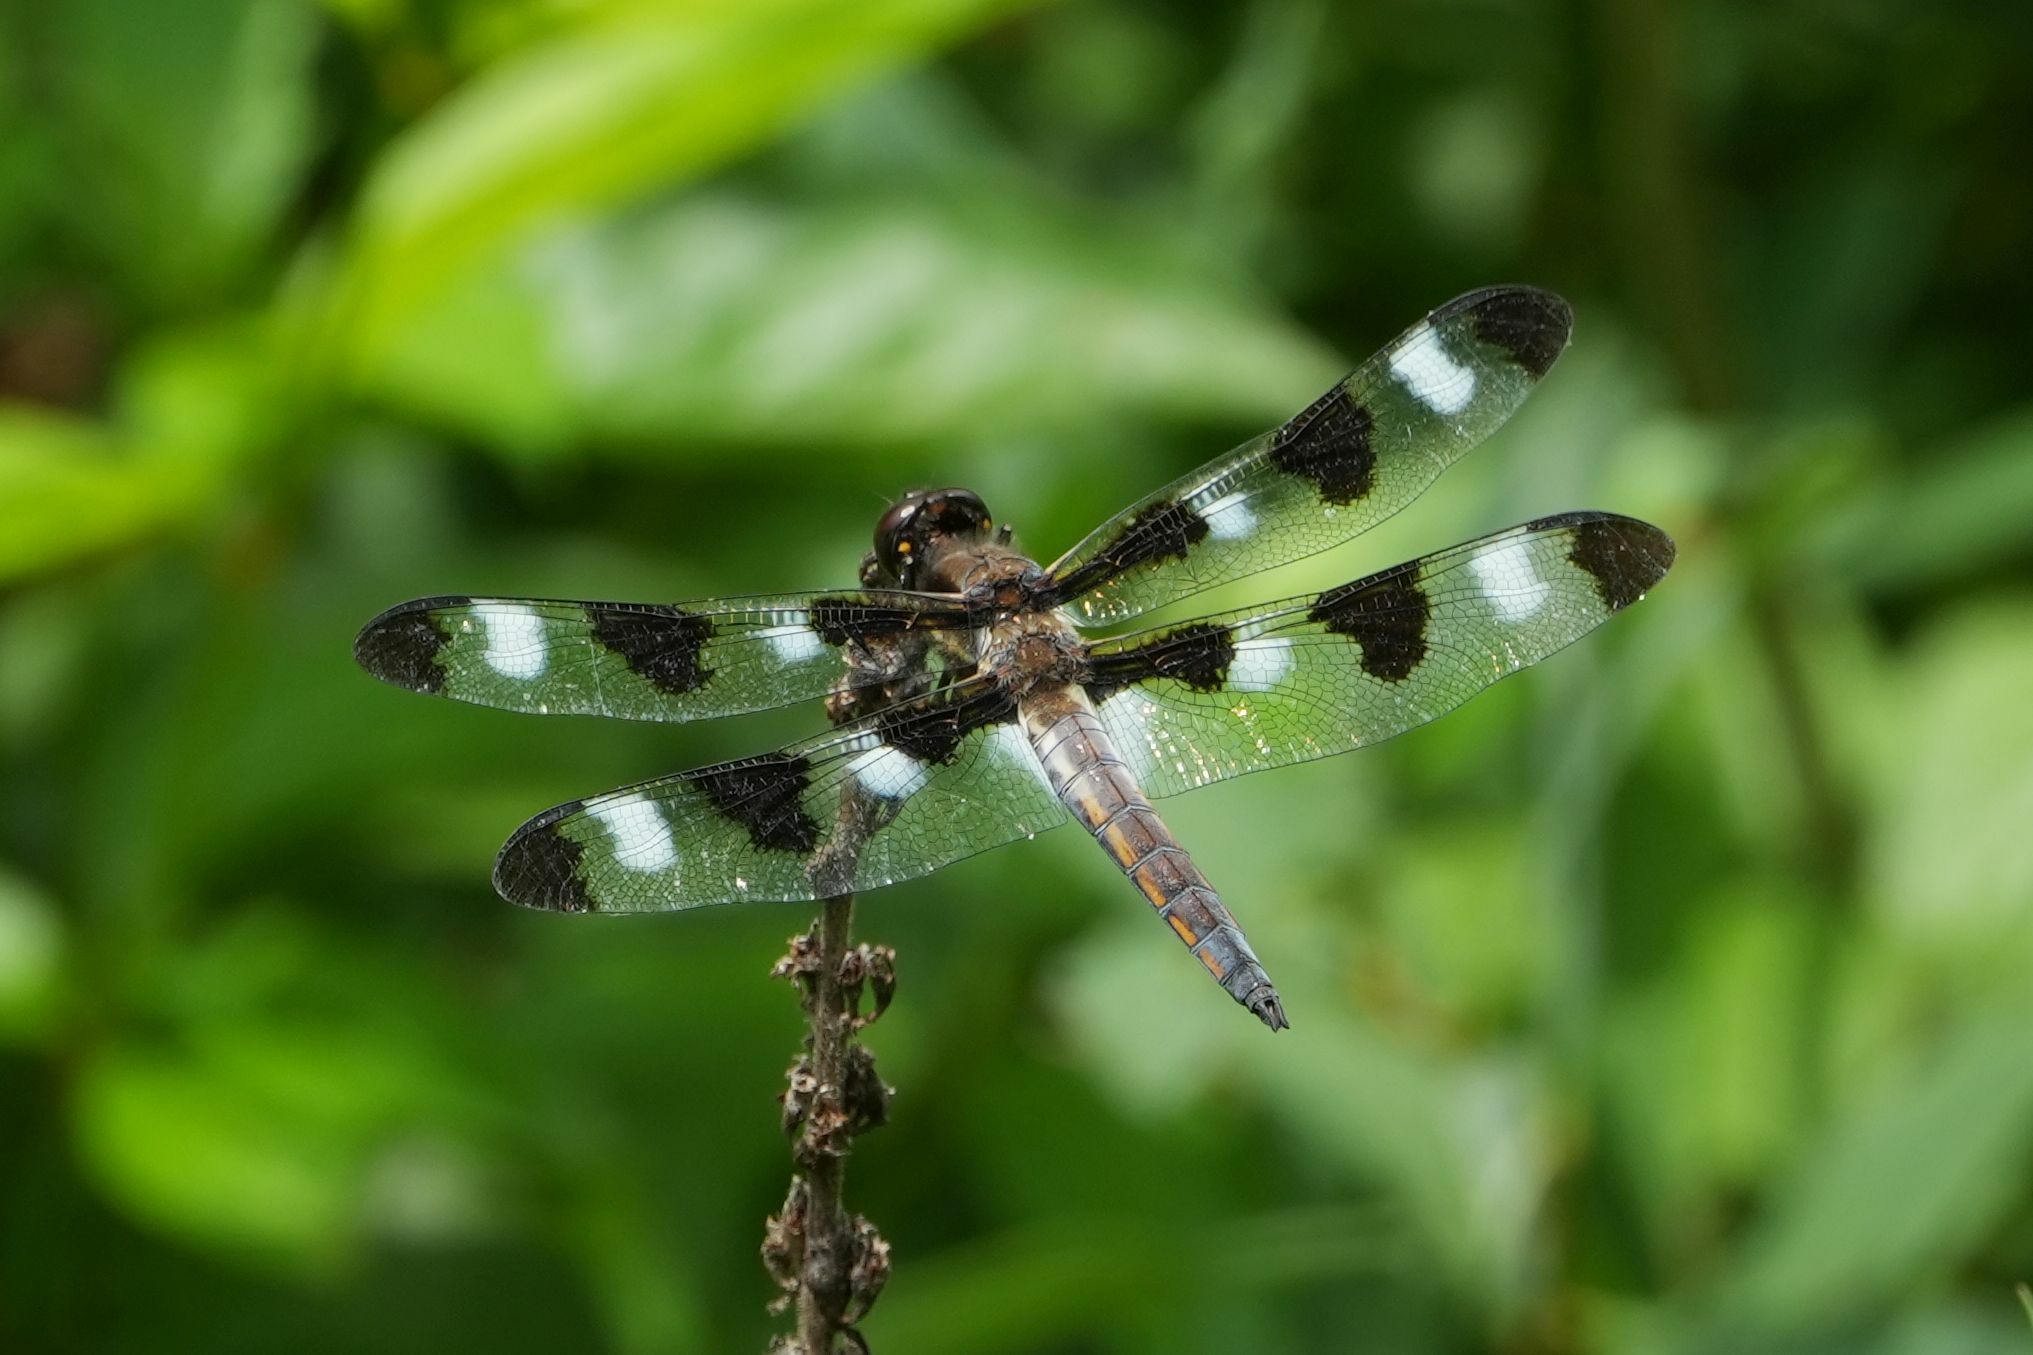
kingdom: Animalia
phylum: Arthropoda
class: Insecta
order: Odonata
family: Libellulidae
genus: Libellula
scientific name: Libellula pulchella
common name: Twelve-spotted skimmer
